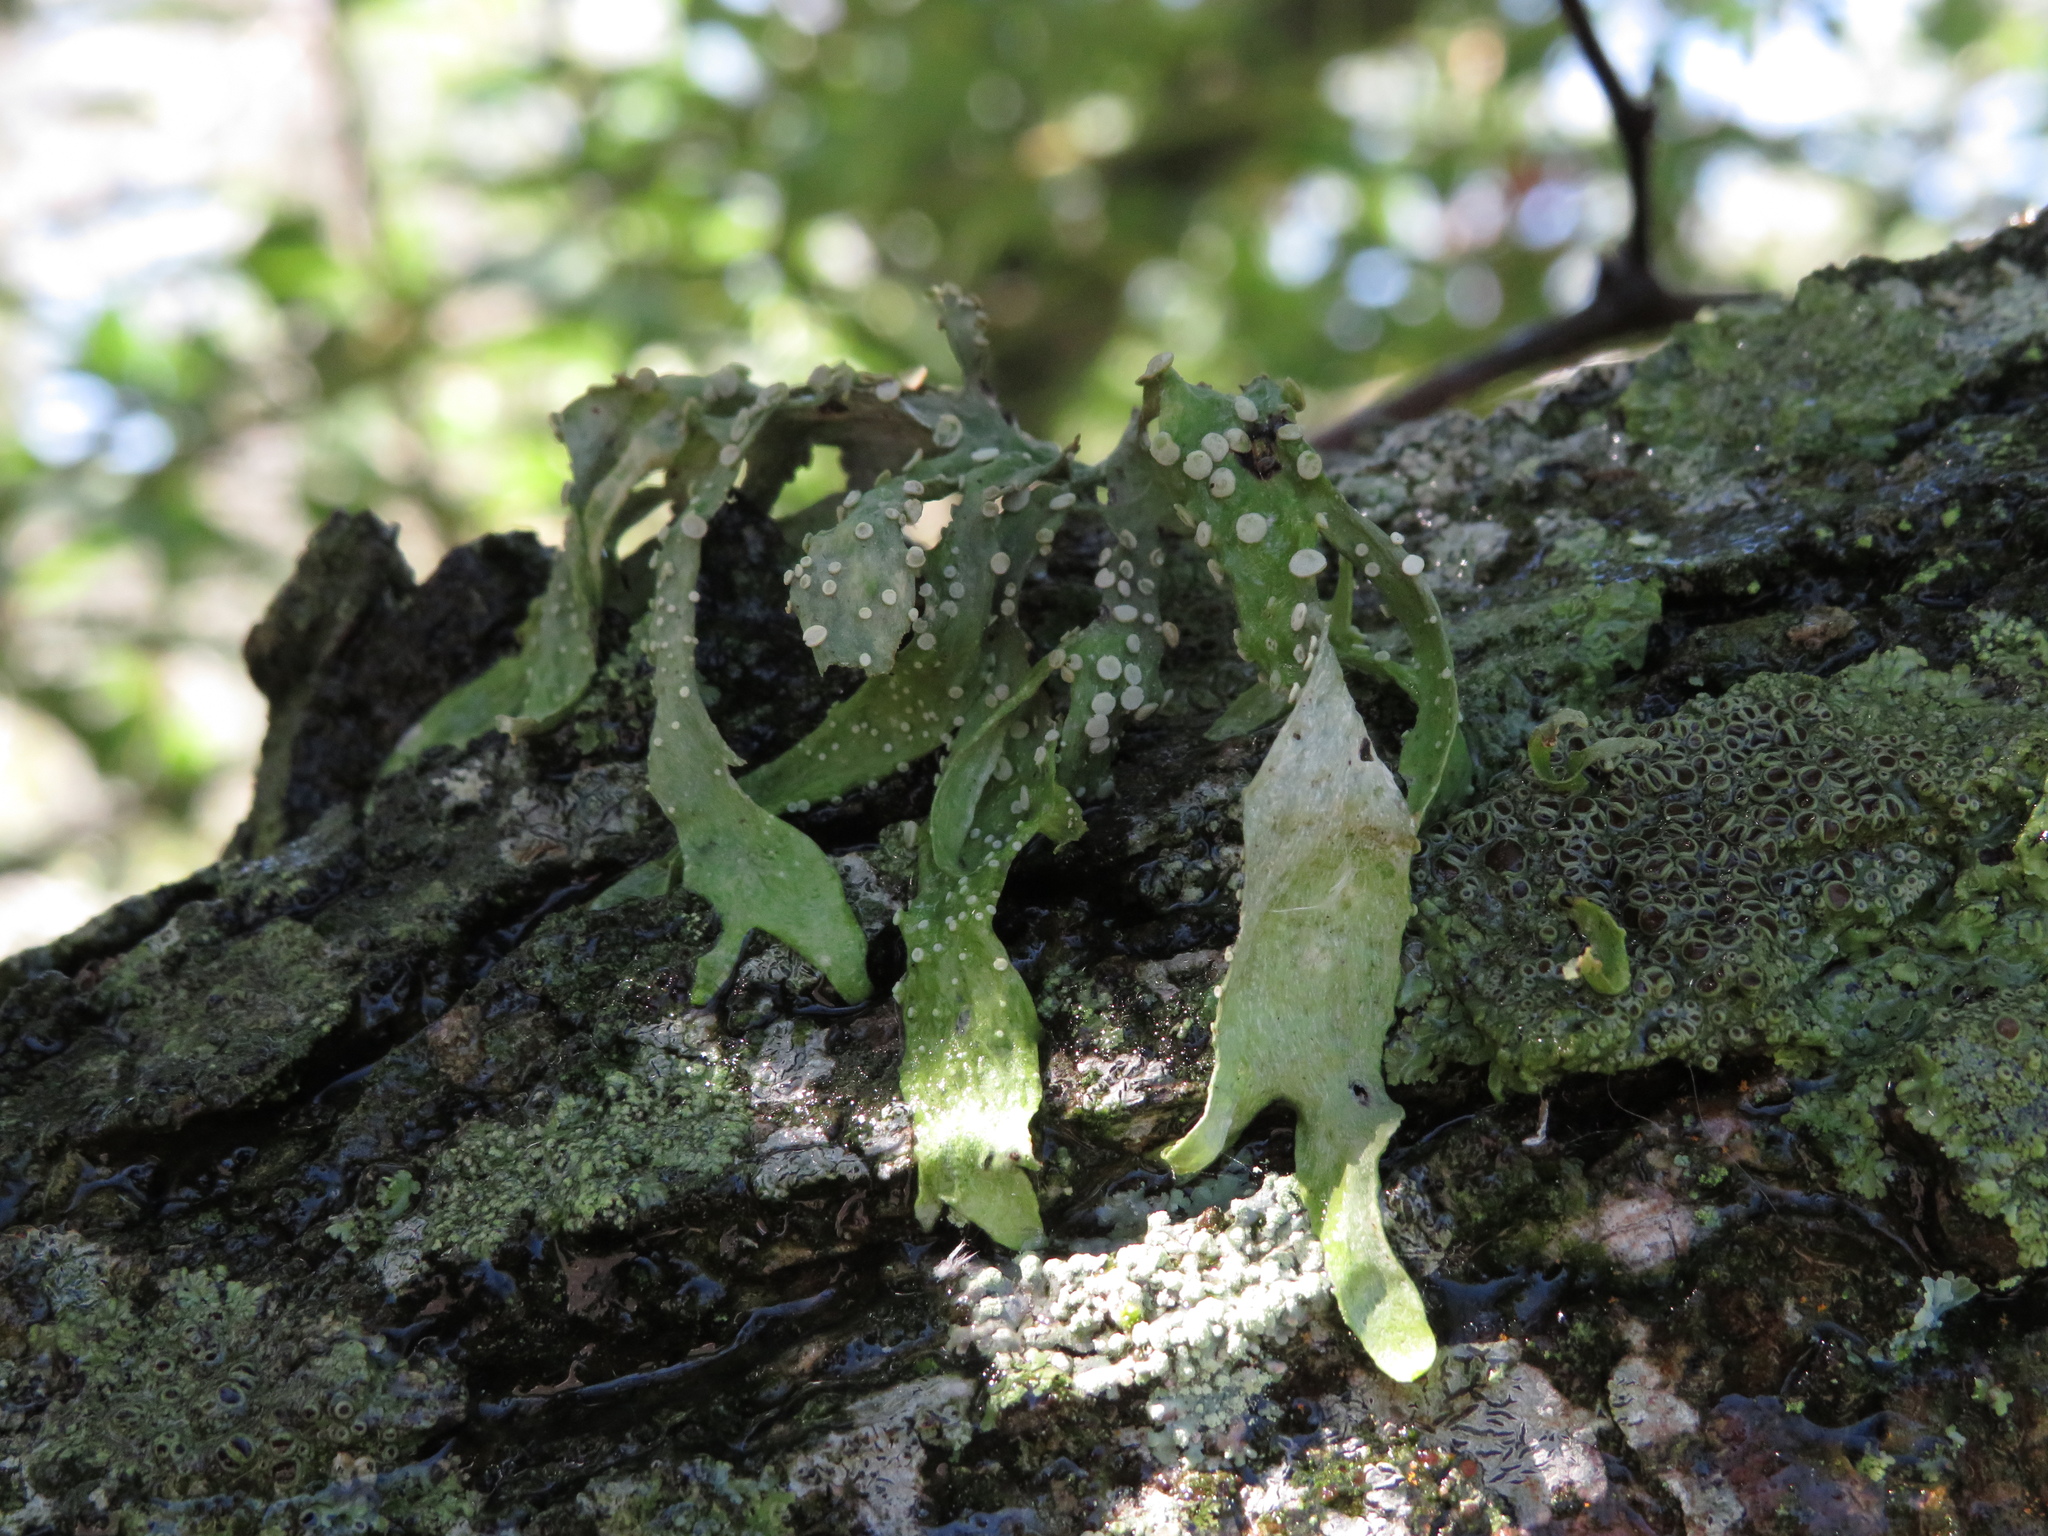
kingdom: Fungi
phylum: Ascomycota
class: Lecanoromycetes
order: Lecanorales
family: Ramalinaceae
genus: Ramalina
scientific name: Ramalina celastri
